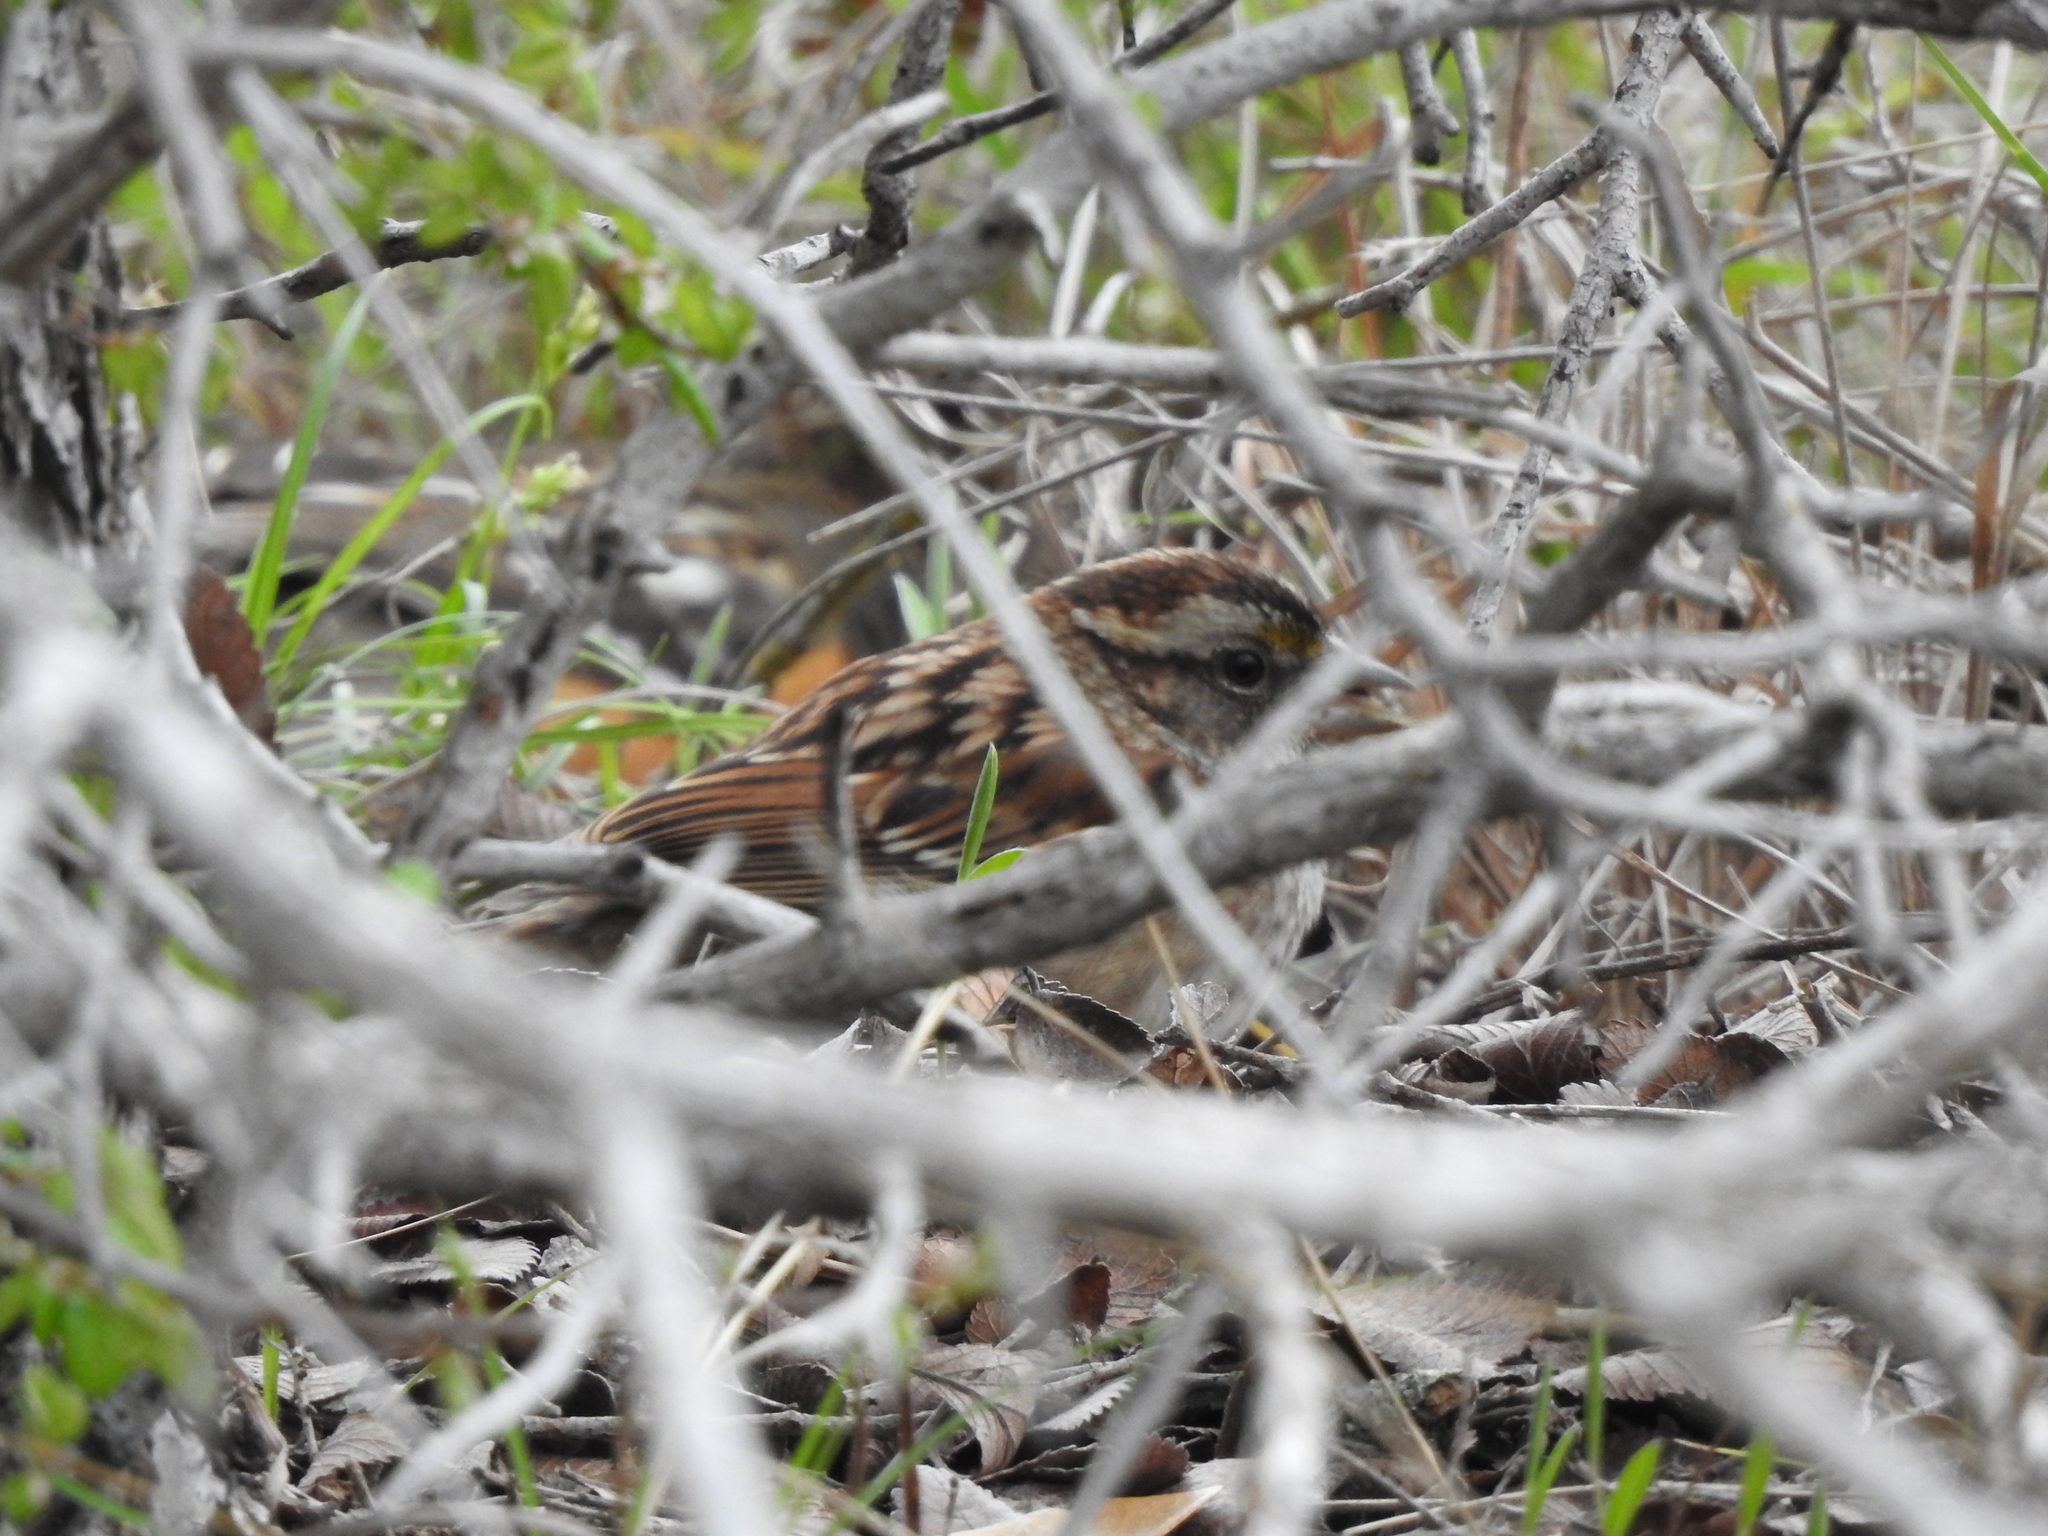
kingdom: Animalia
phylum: Chordata
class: Aves
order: Passeriformes
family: Passerellidae
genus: Zonotrichia
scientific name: Zonotrichia albicollis
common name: White-throated sparrow
